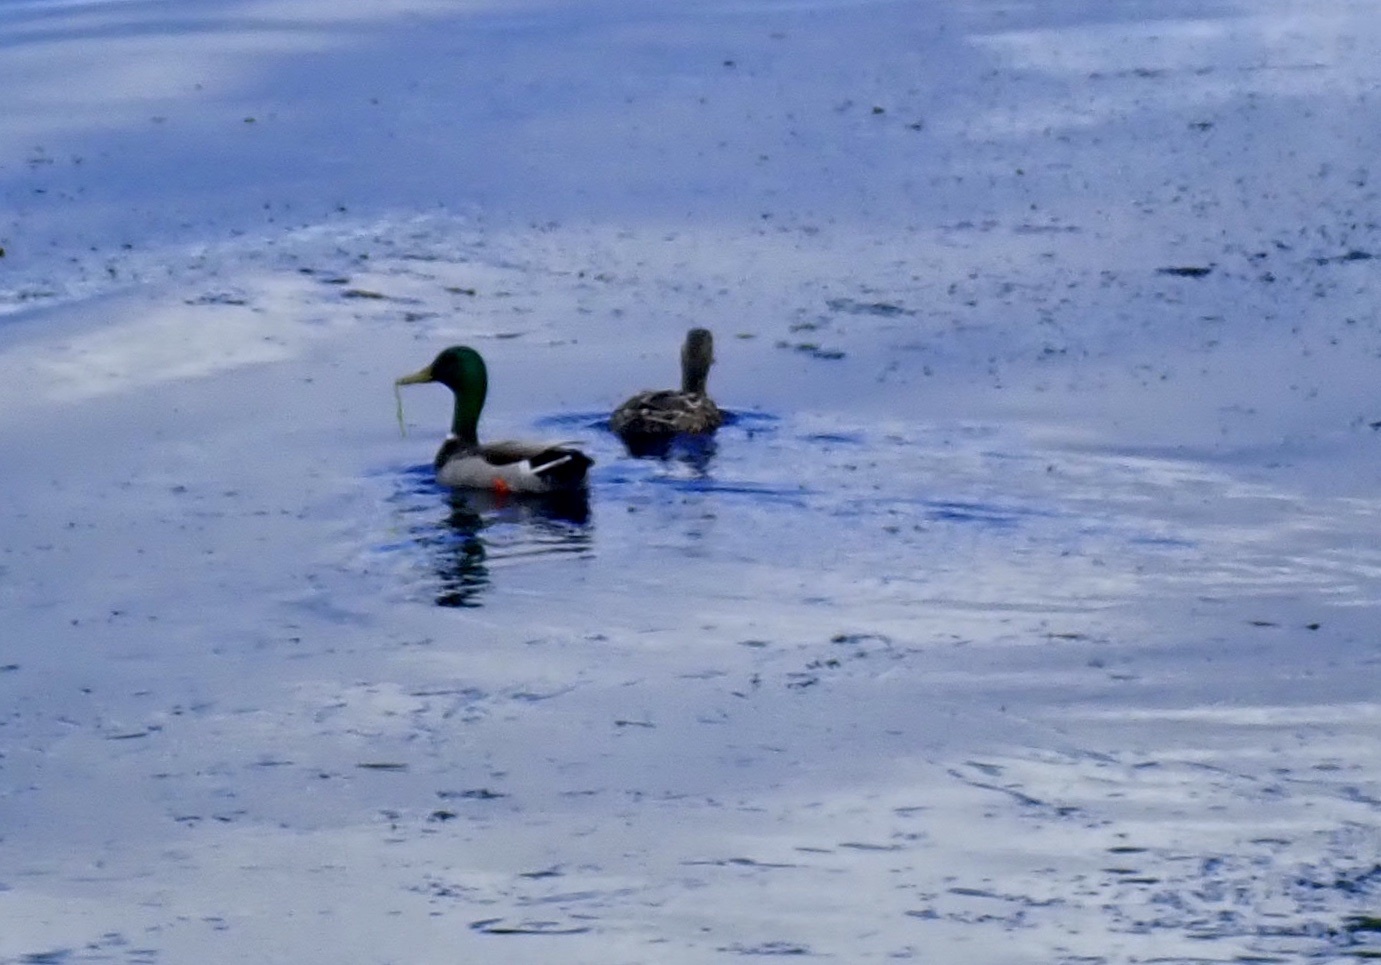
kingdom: Animalia
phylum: Chordata
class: Aves
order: Anseriformes
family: Anatidae
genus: Anas
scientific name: Anas platyrhynchos
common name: Mallard
